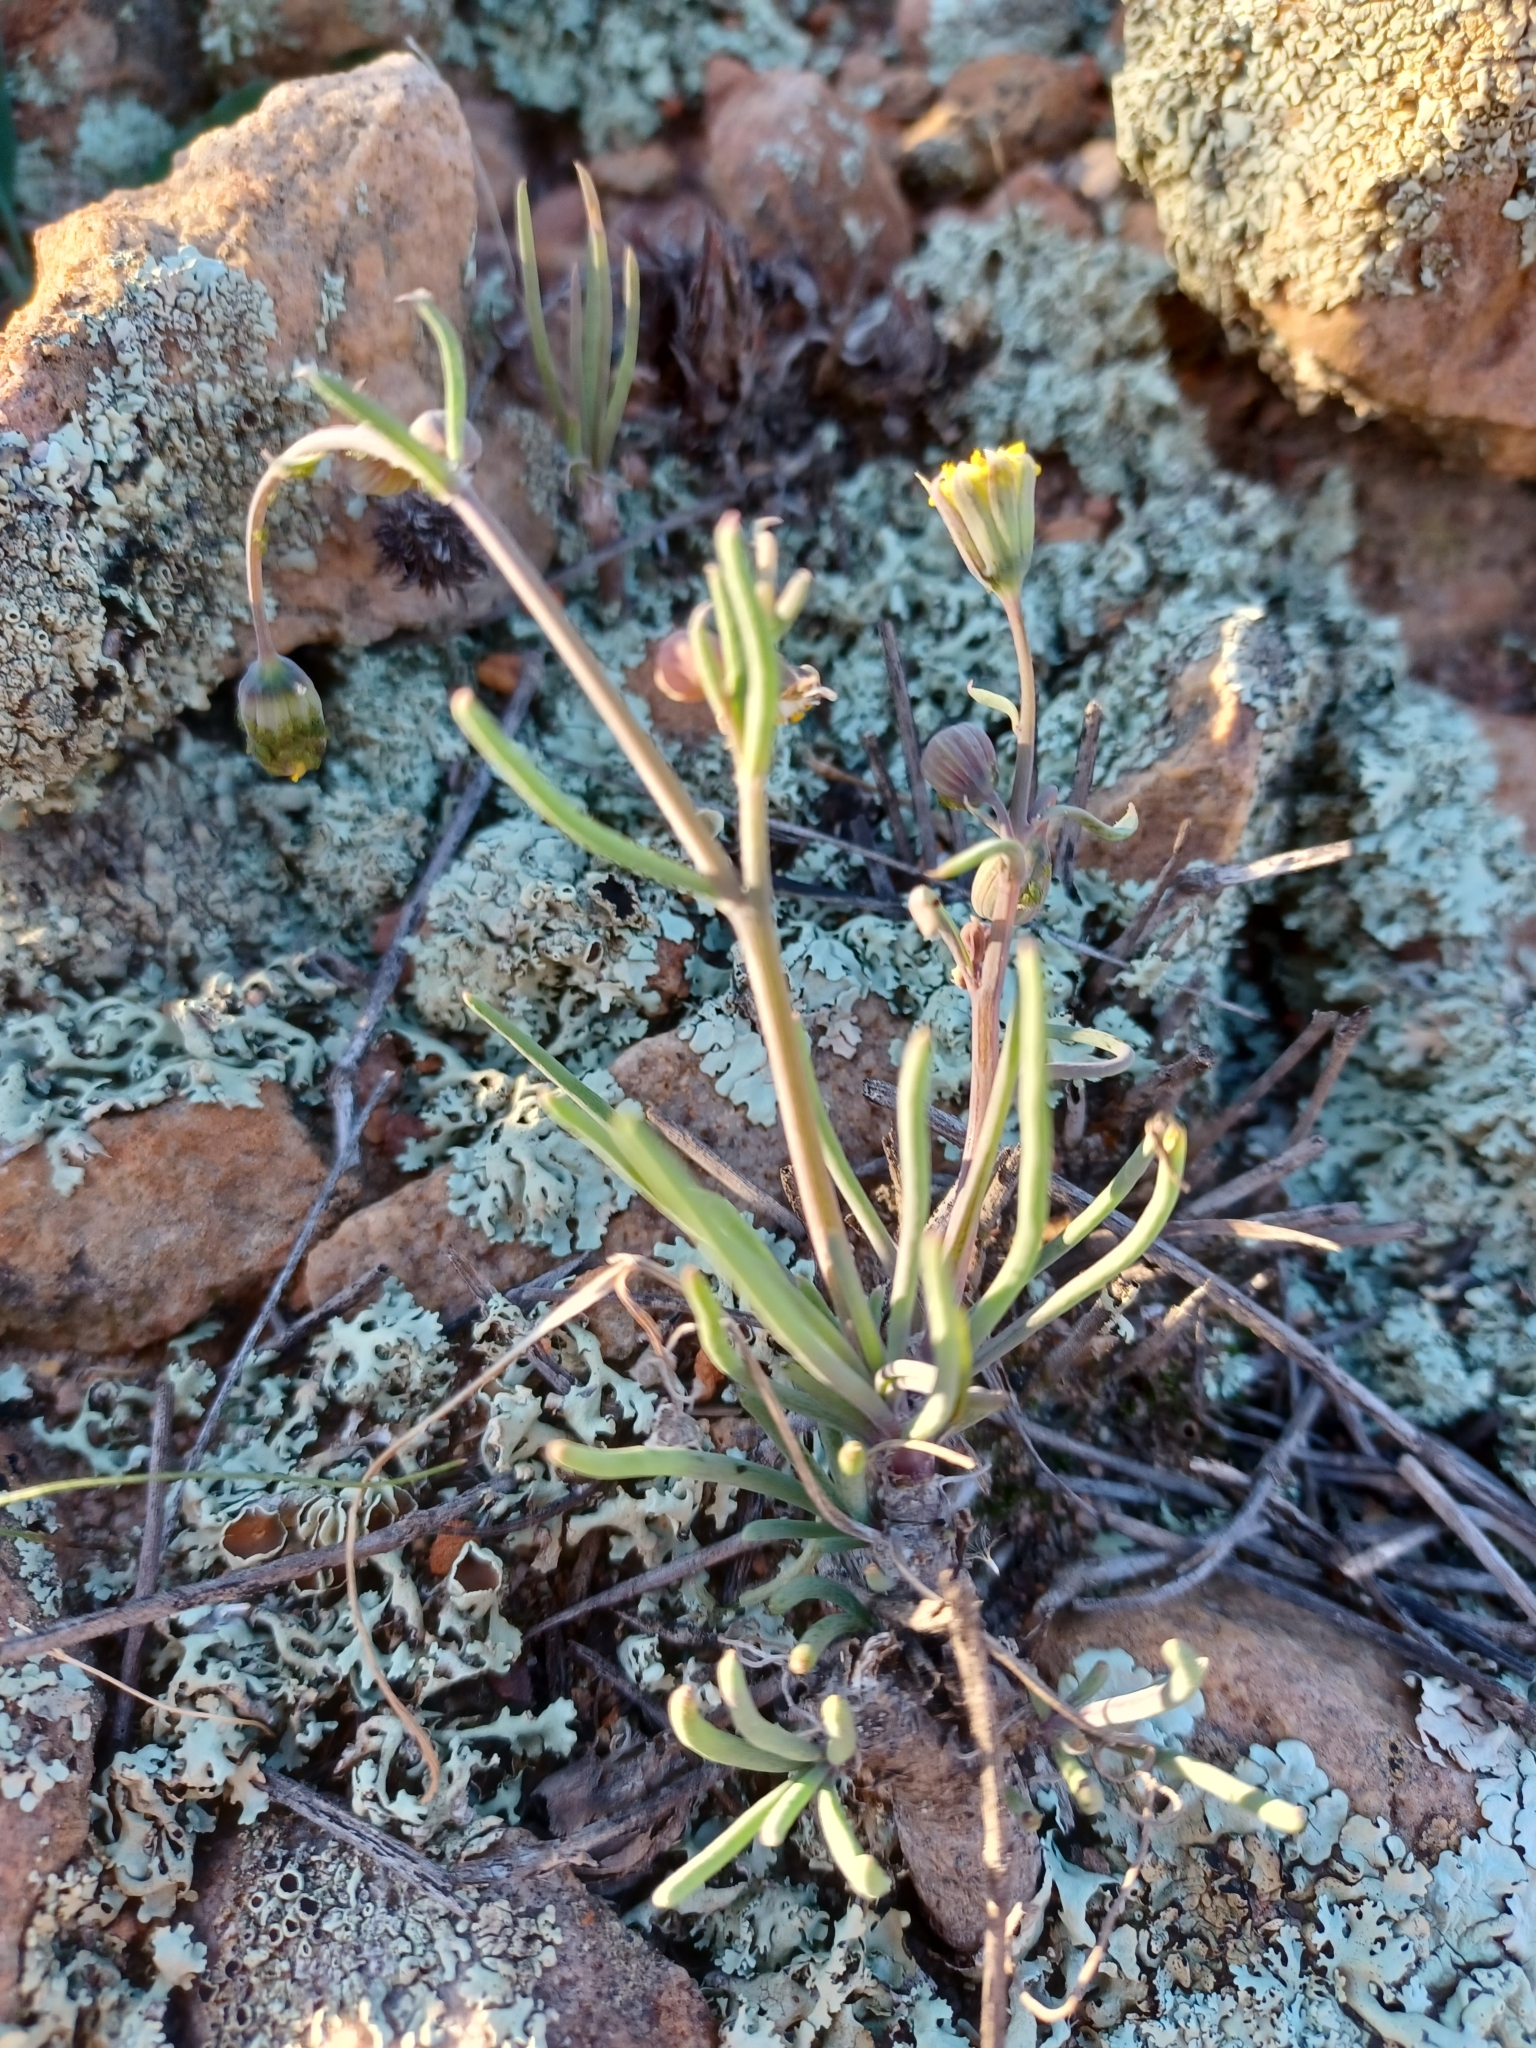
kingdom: Plantae
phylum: Tracheophyta
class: Magnoliopsida
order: Asterales
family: Asteraceae
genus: Crassothonna
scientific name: Crassothonna protecta
